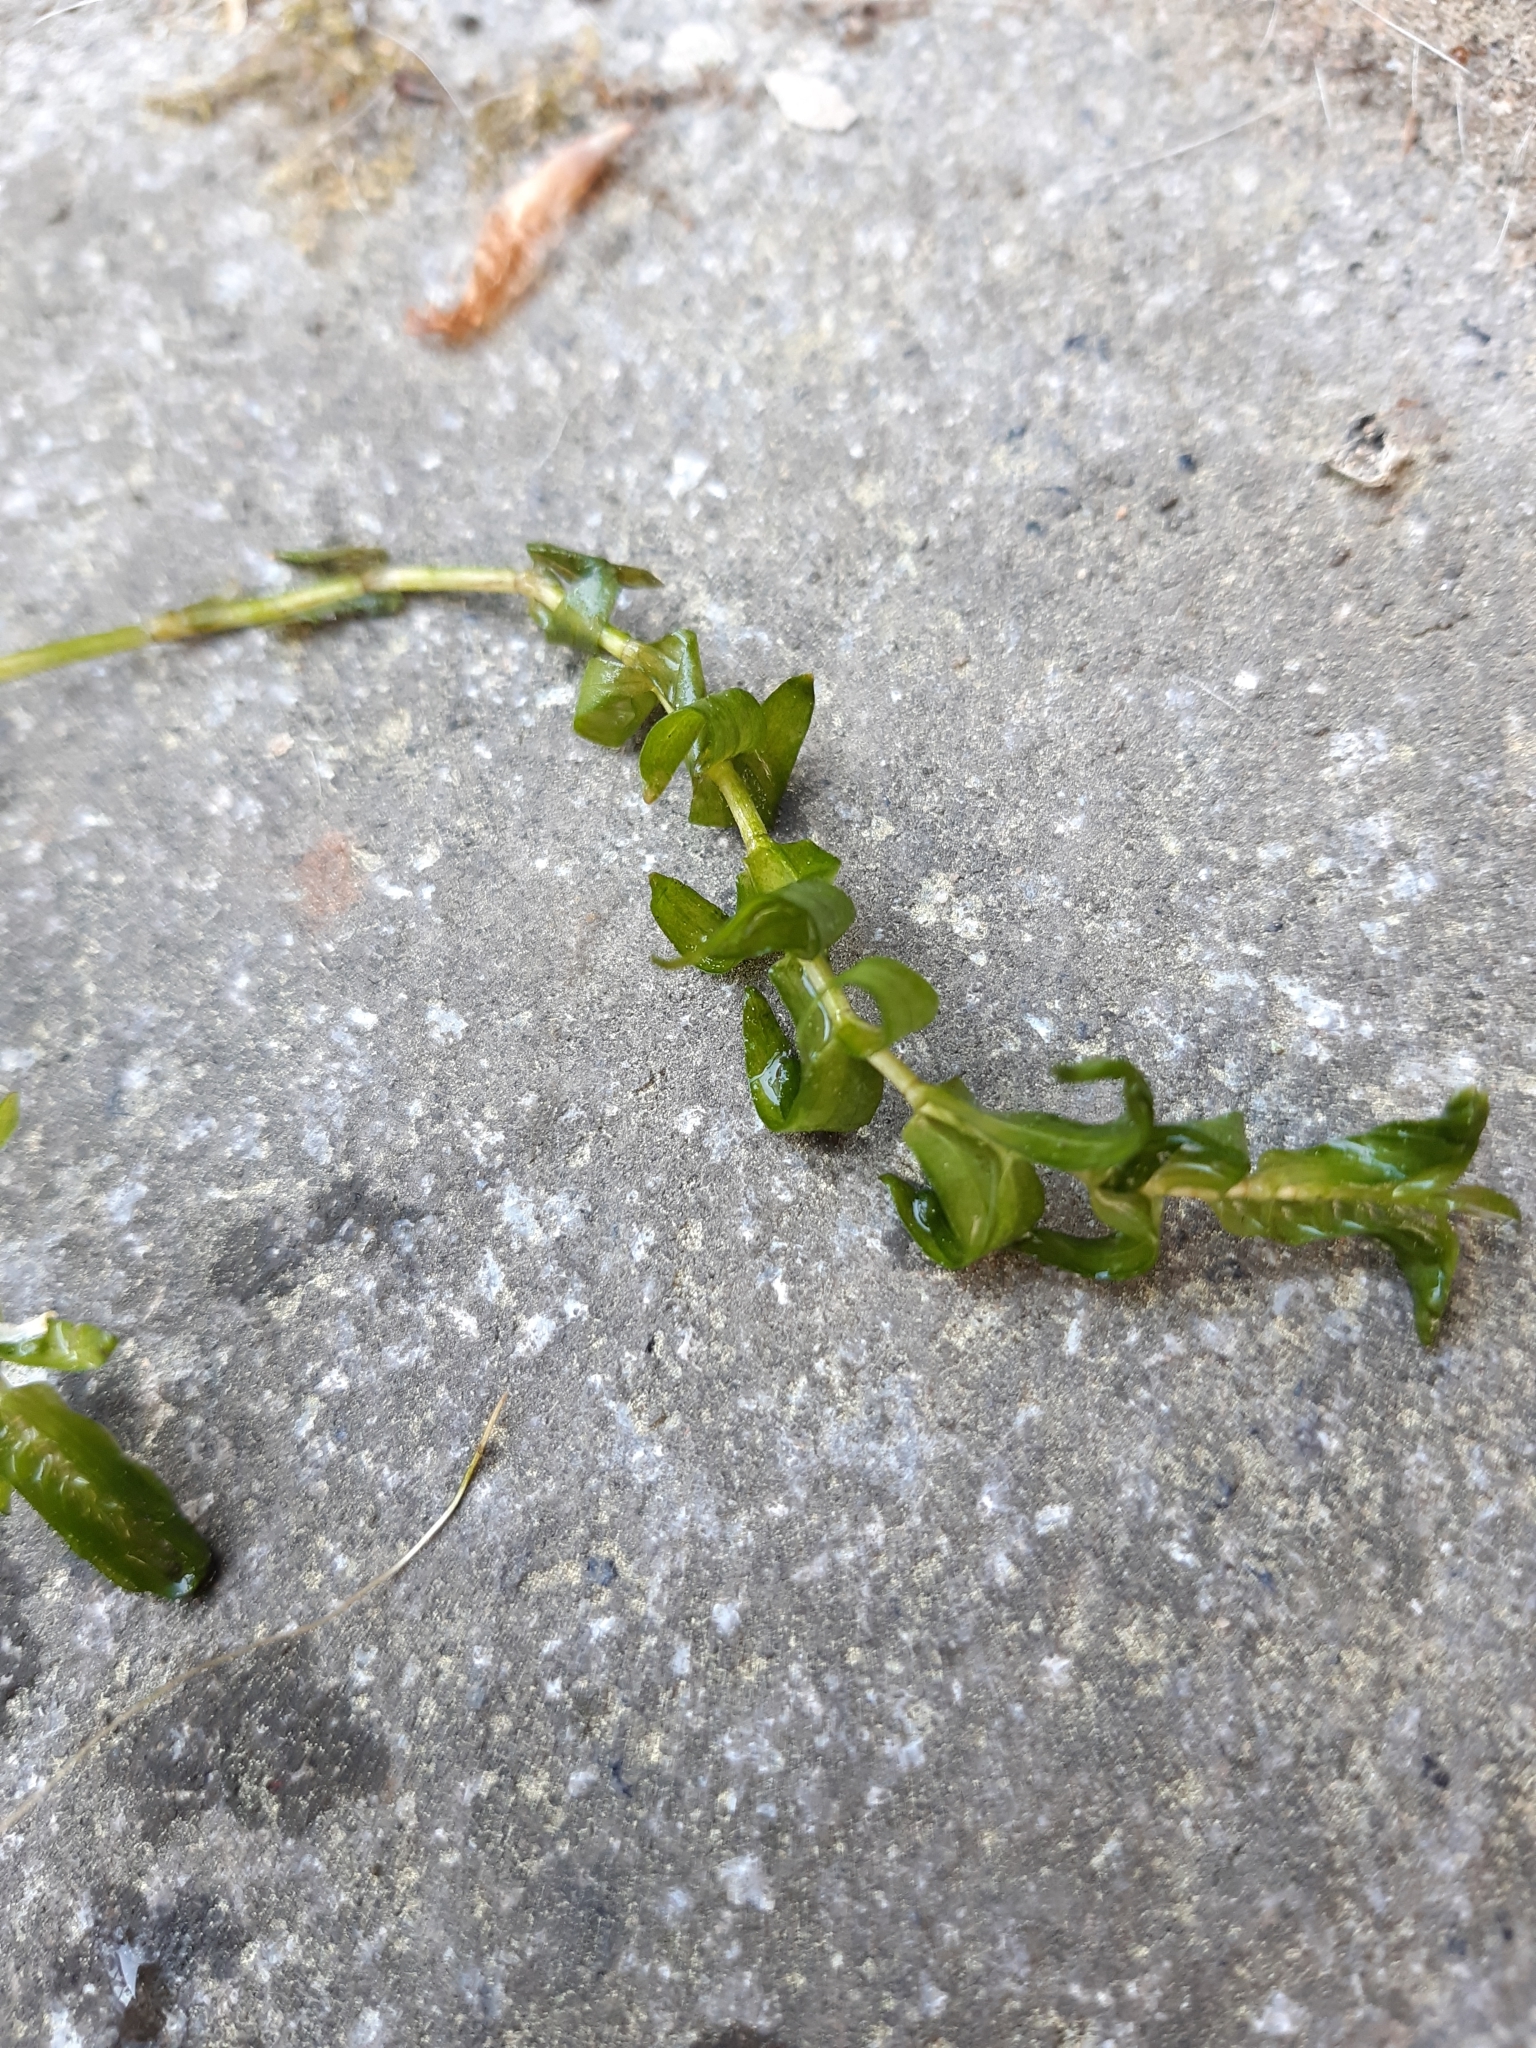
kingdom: Plantae
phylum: Tracheophyta
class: Liliopsida
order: Alismatales
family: Potamogetonaceae
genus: Groenlandia
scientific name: Groenlandia densa
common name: Opposite-leaved pondweed
